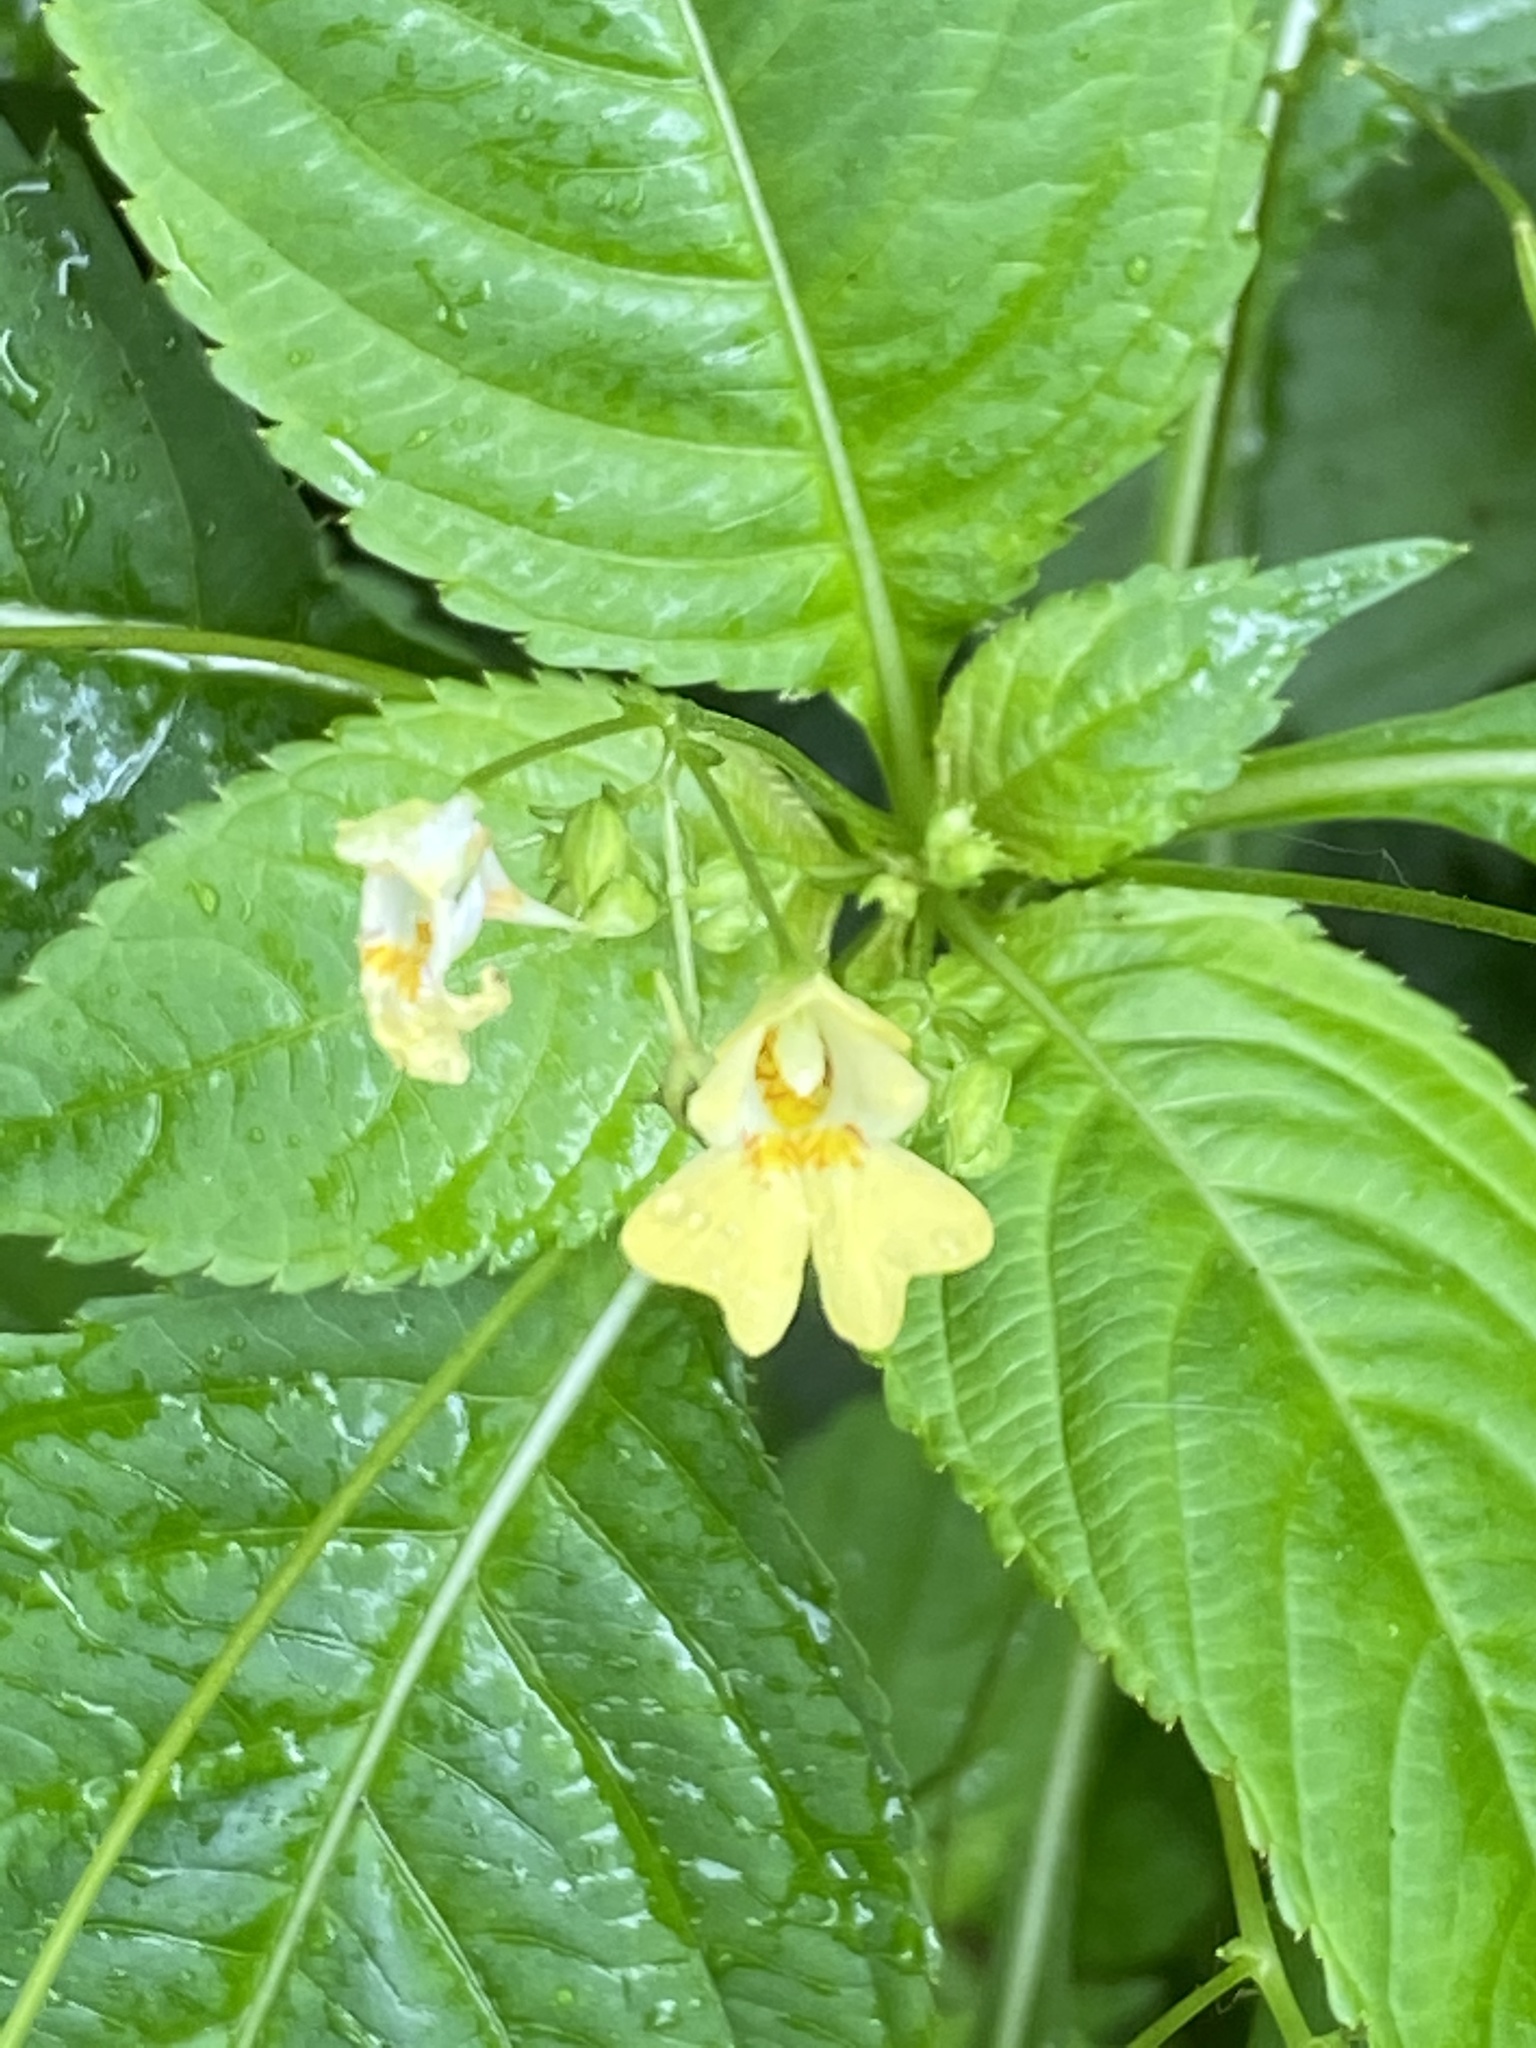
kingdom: Plantae
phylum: Tracheophyta
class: Magnoliopsida
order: Ericales
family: Balsaminaceae
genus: Impatiens
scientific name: Impatiens parviflora
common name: Small balsam
